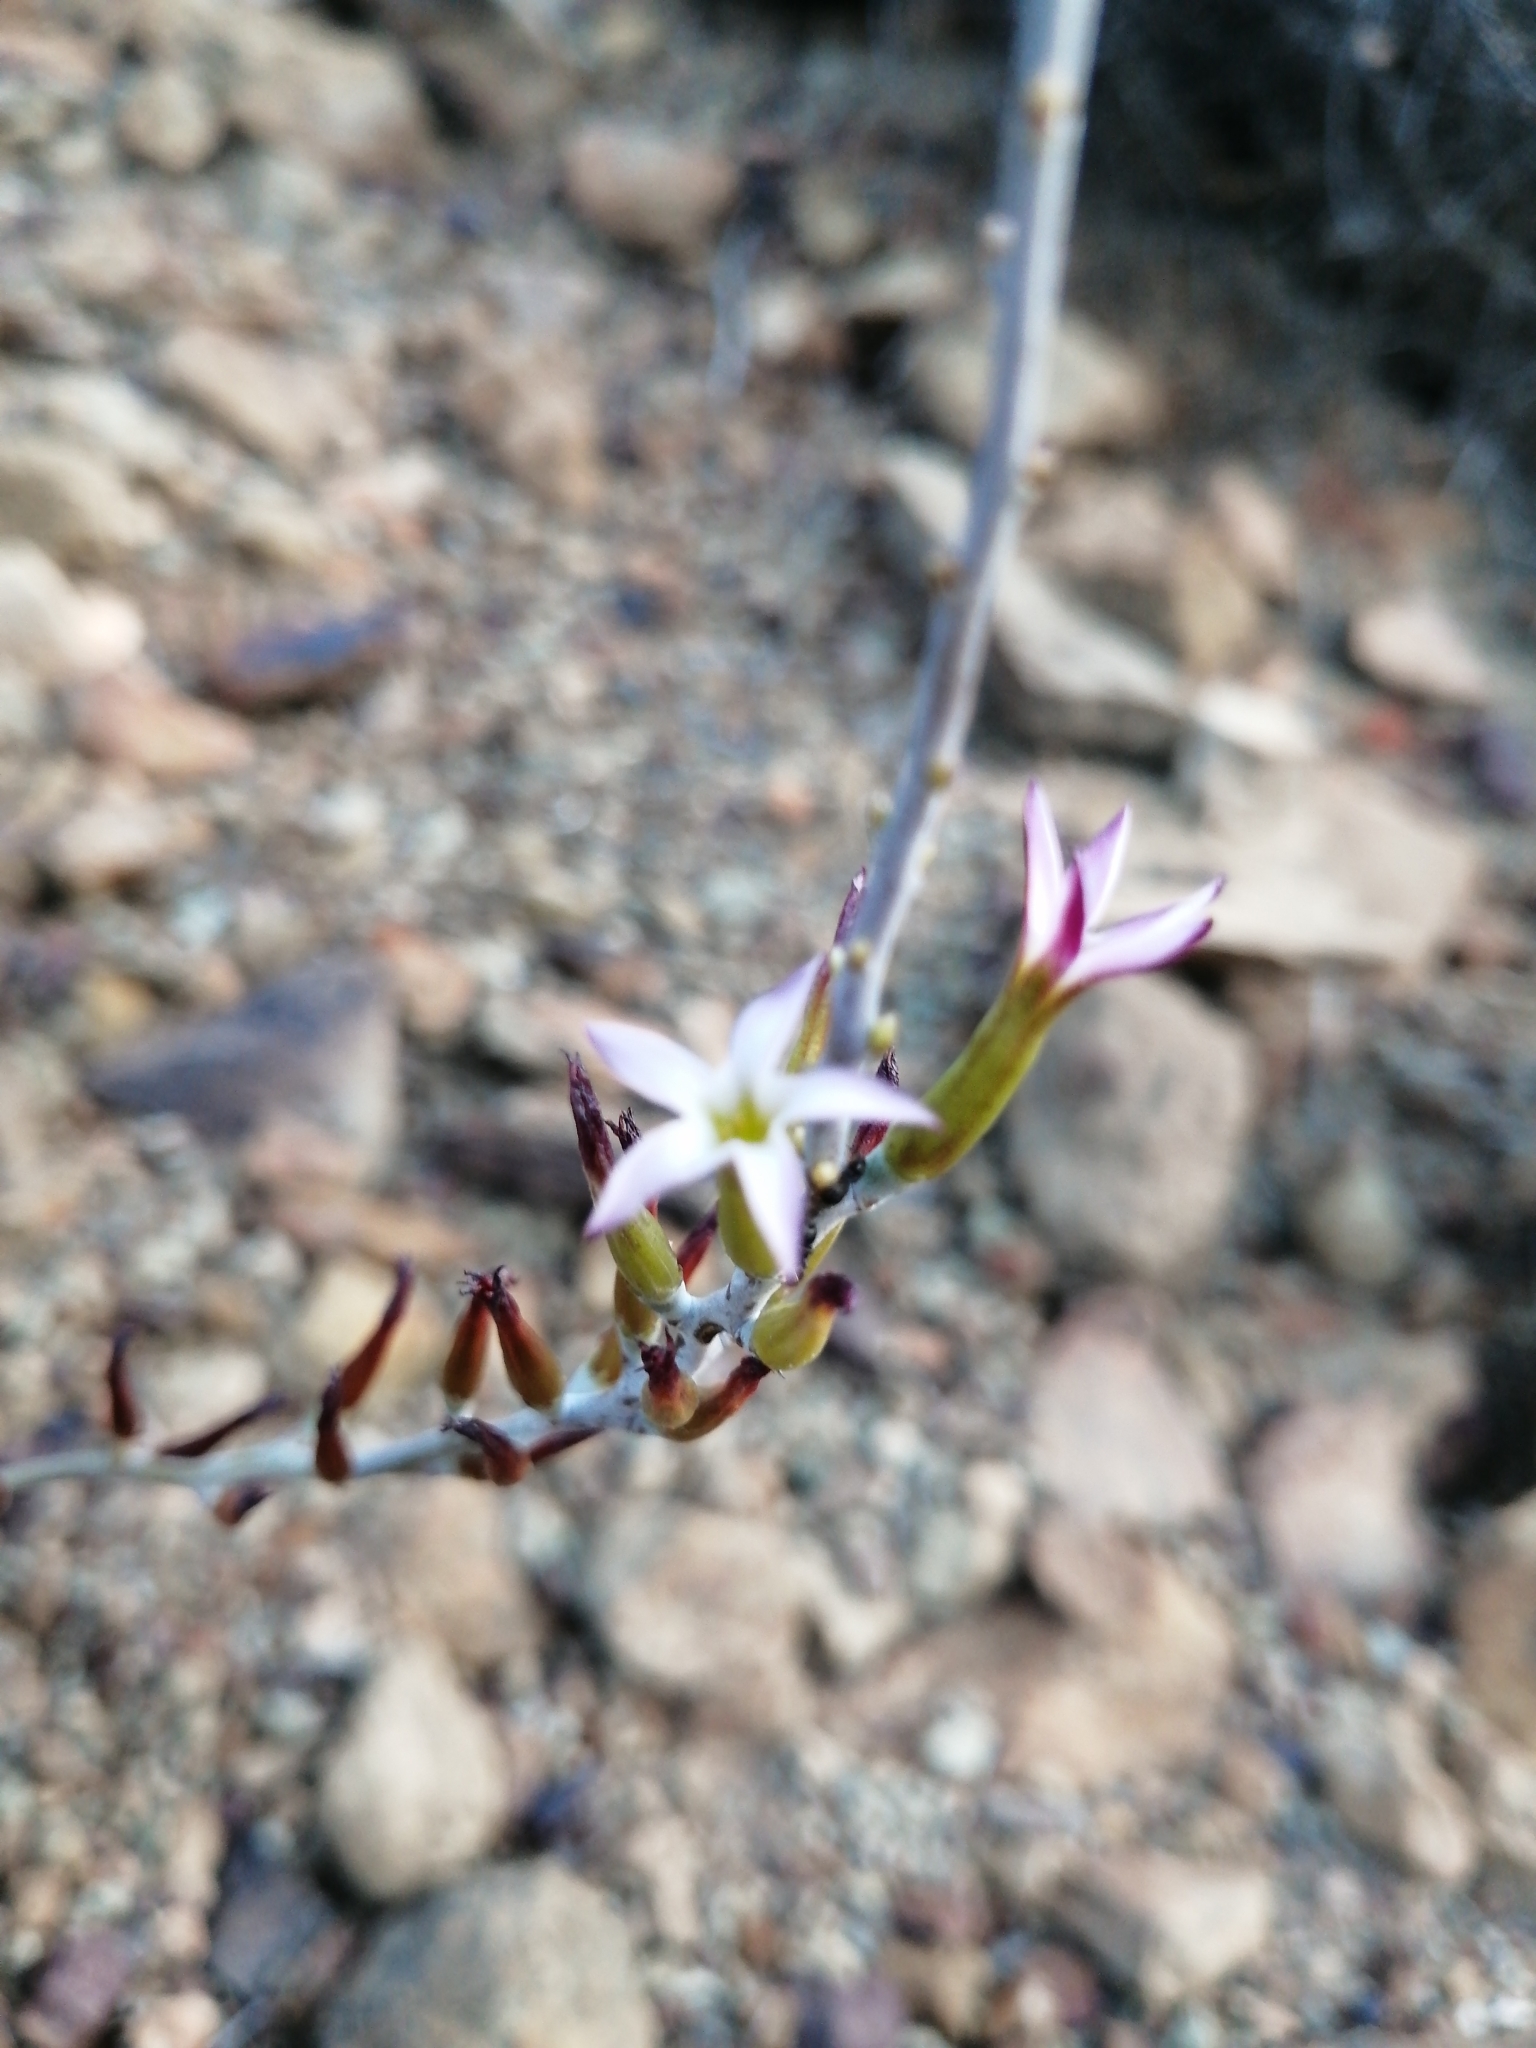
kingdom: Plantae
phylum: Tracheophyta
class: Magnoliopsida
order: Saxifragales
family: Crassulaceae
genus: Adromischus
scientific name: Adromischus maculatus
